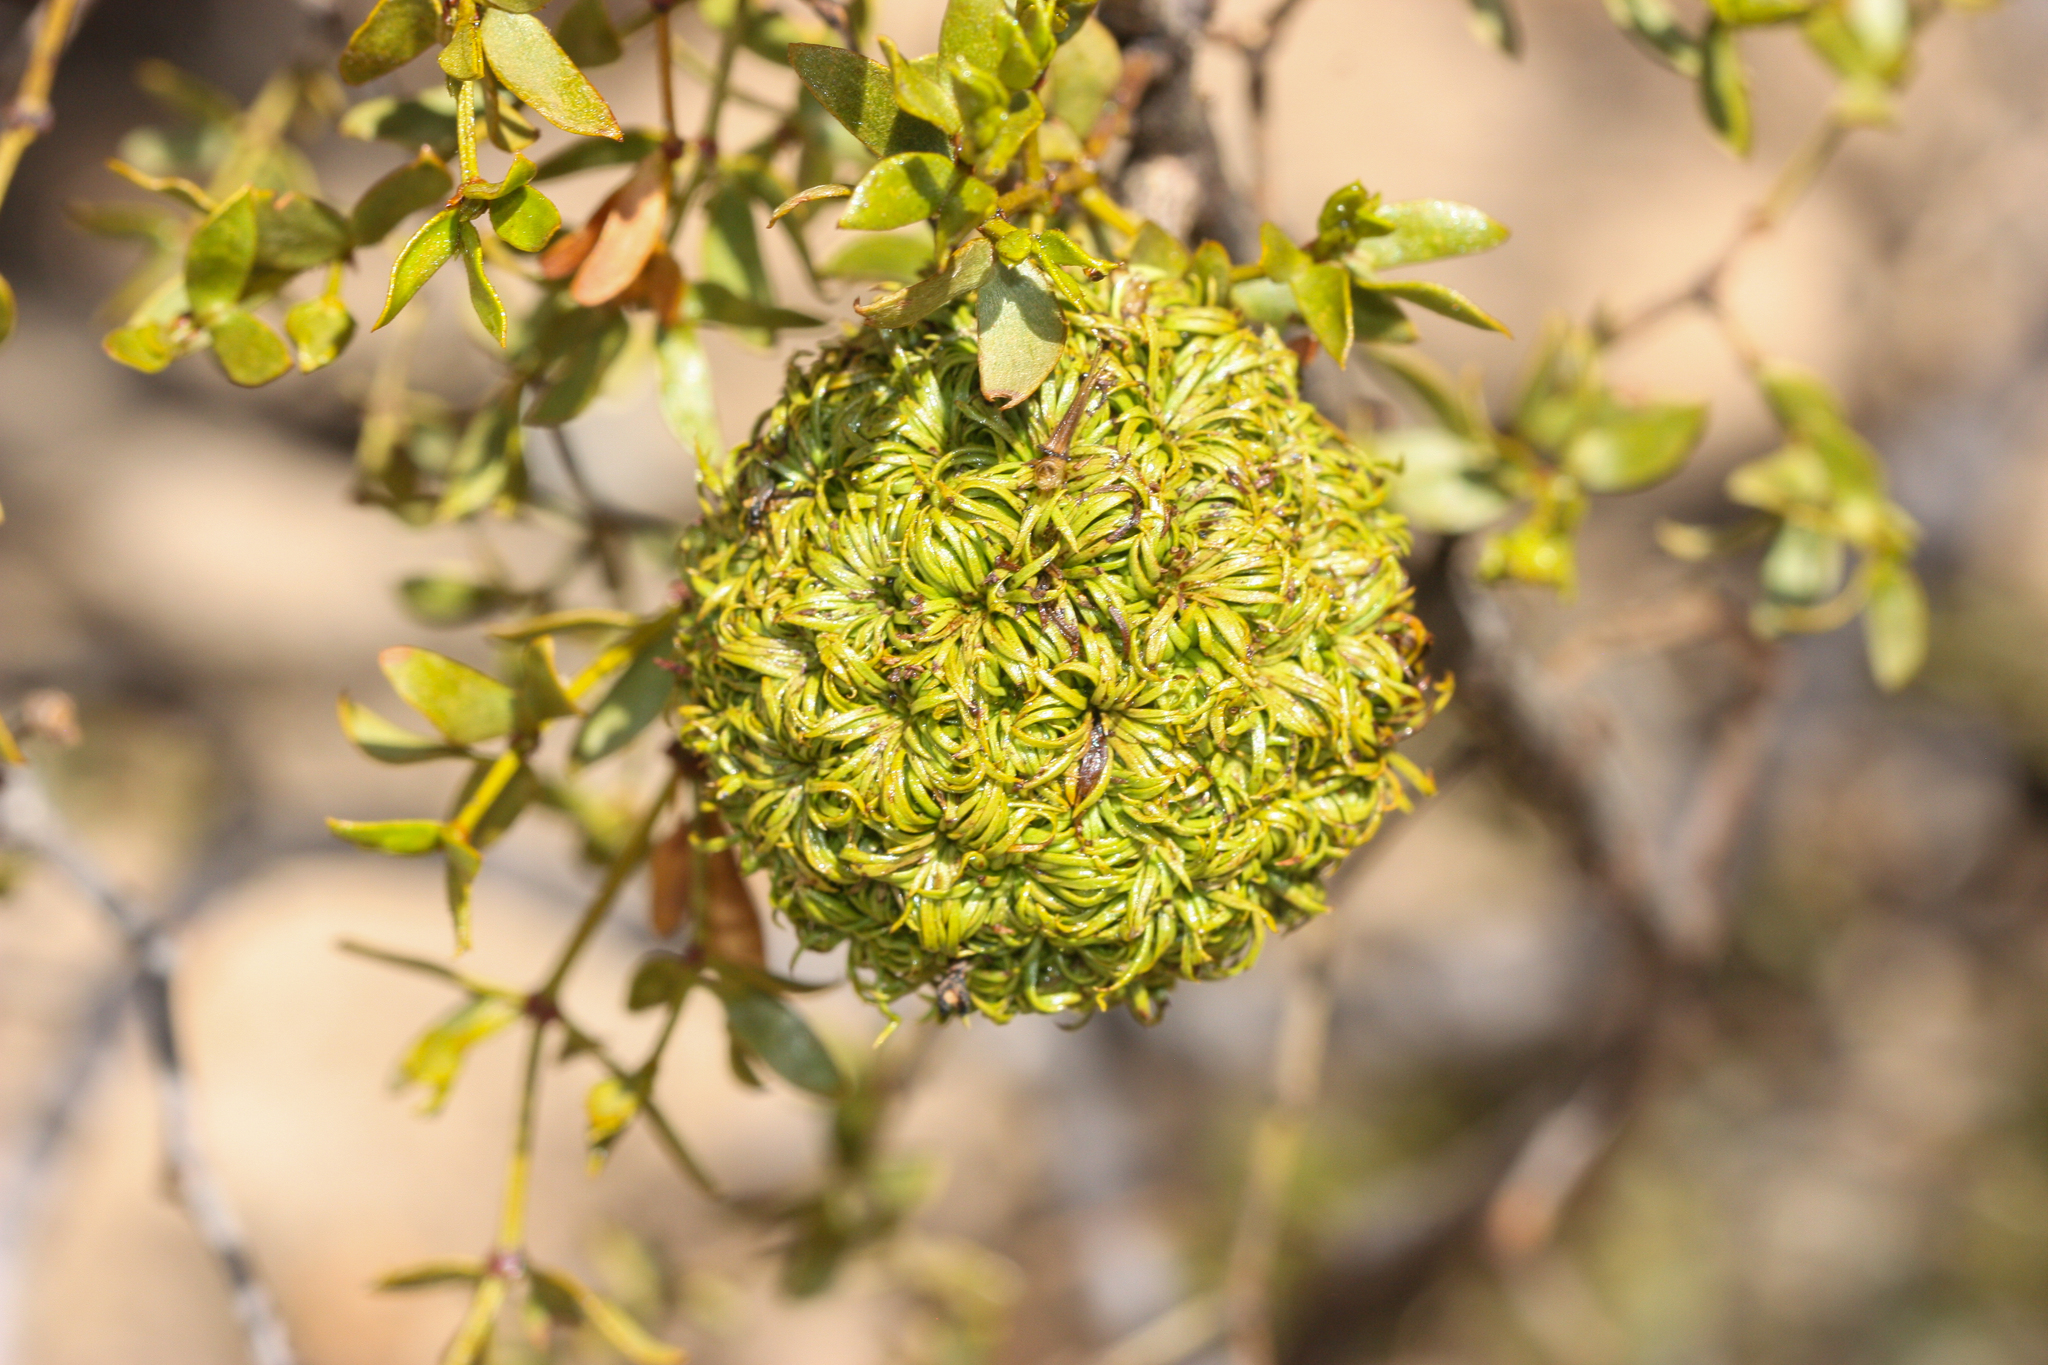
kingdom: Animalia
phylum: Arthropoda
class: Insecta
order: Diptera
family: Cecidomyiidae
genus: Asphondylia
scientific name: Asphondylia auripila
